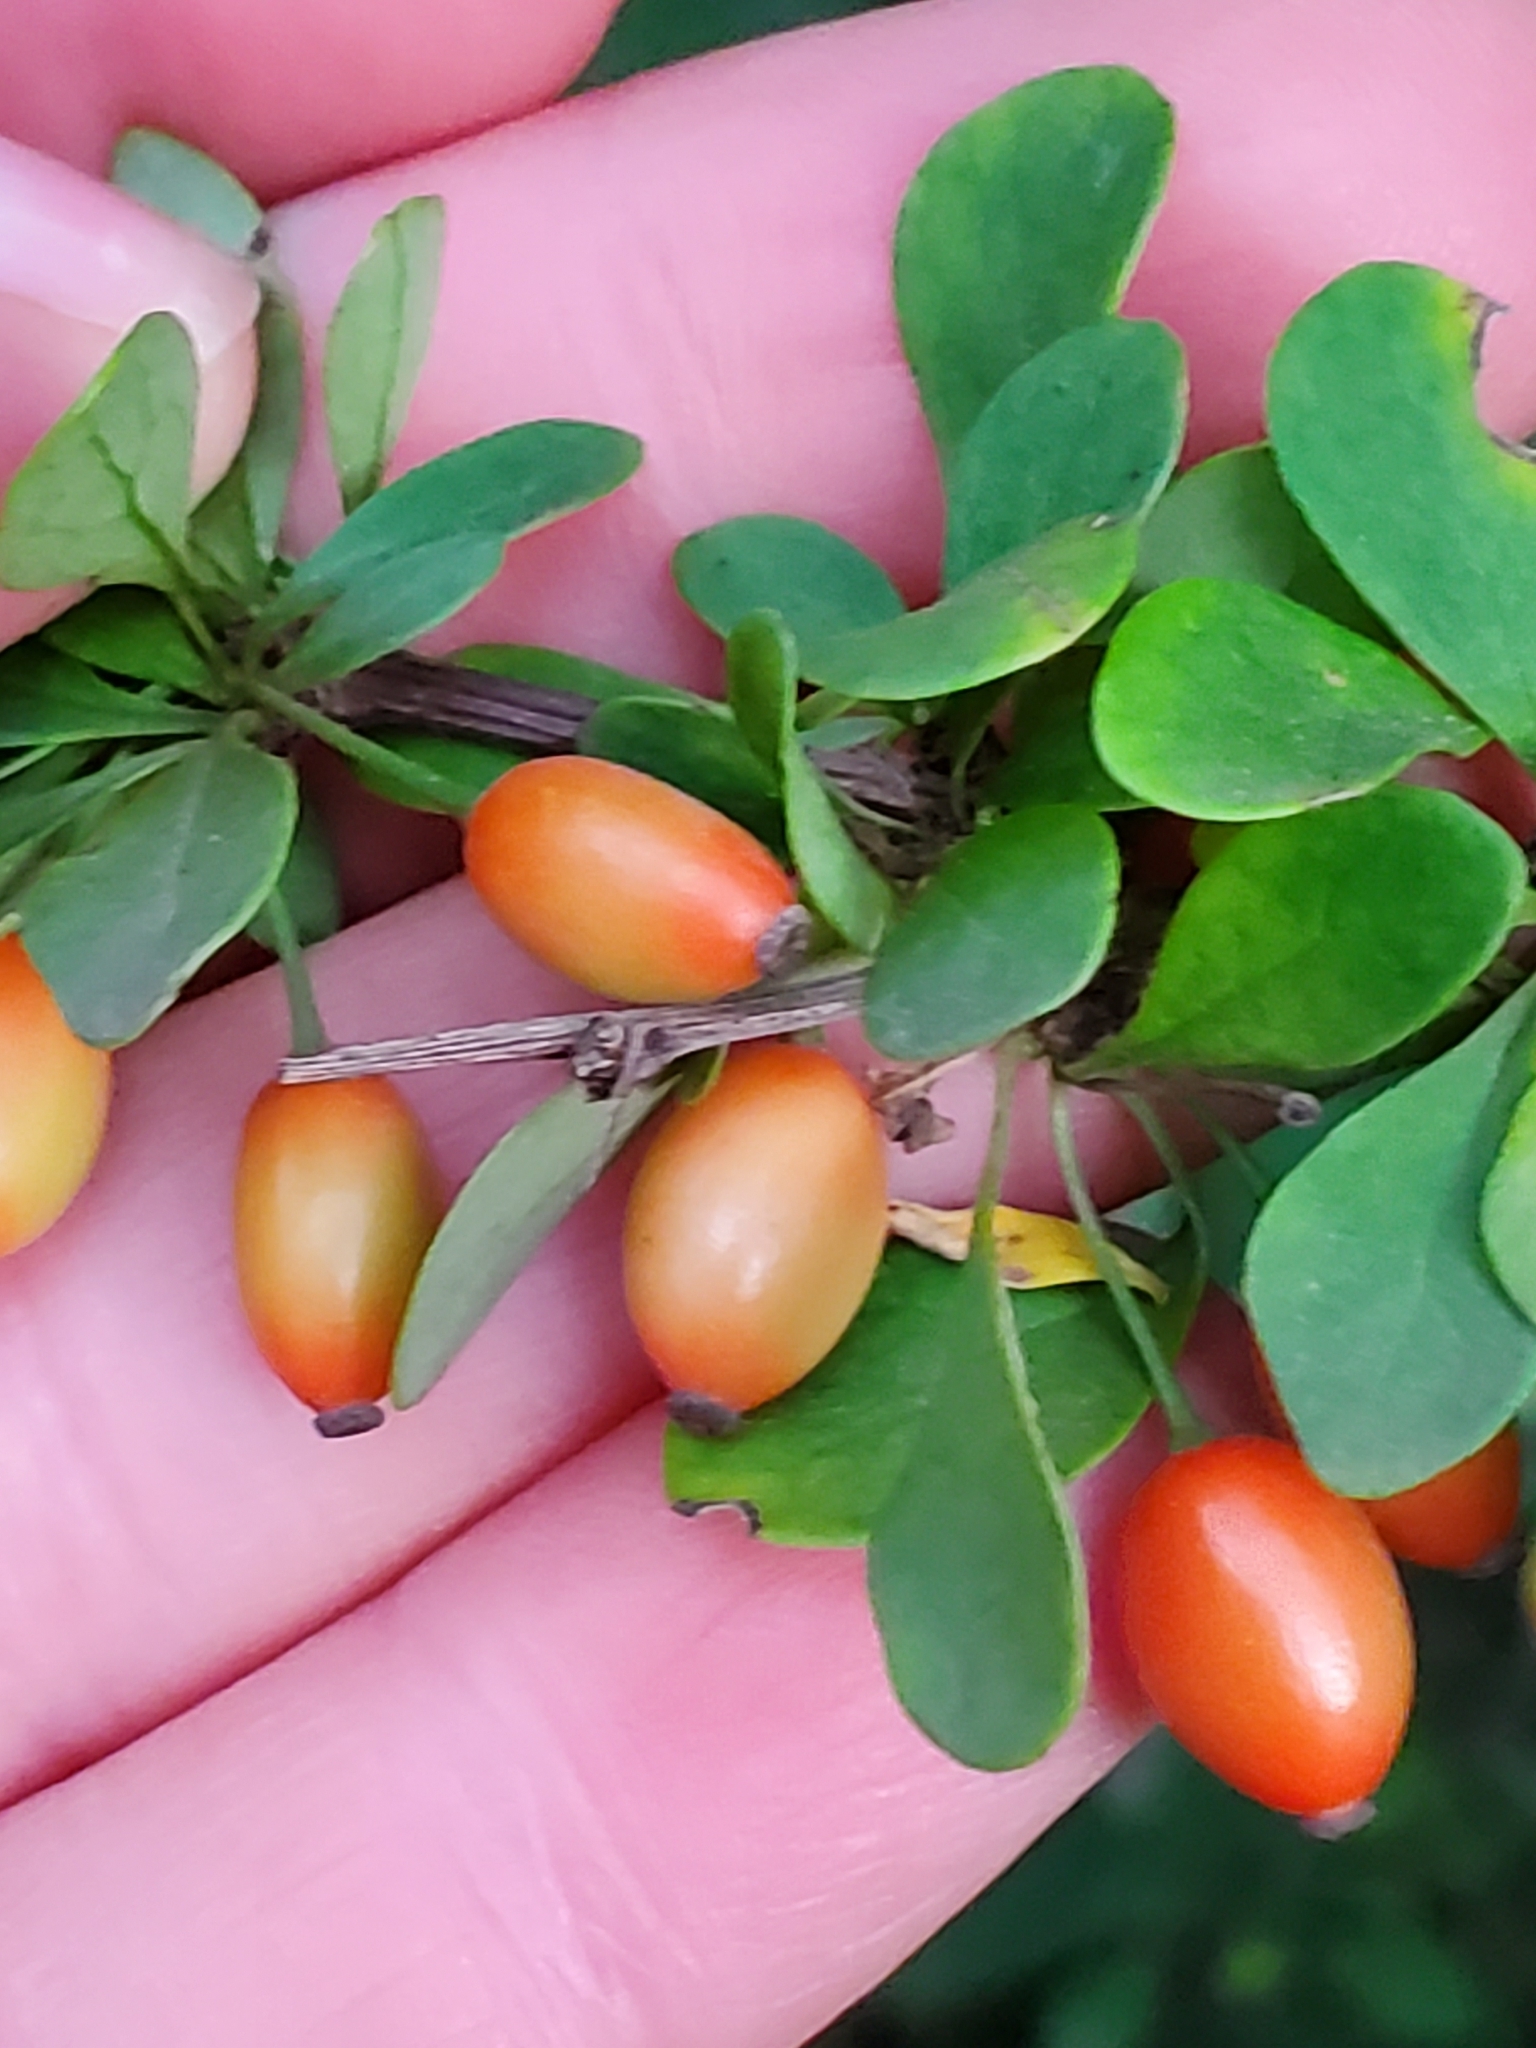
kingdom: Plantae
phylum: Tracheophyta
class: Magnoliopsida
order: Ranunculales
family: Berberidaceae
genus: Berberis
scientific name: Berberis thunbergii
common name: Japanese barberry
